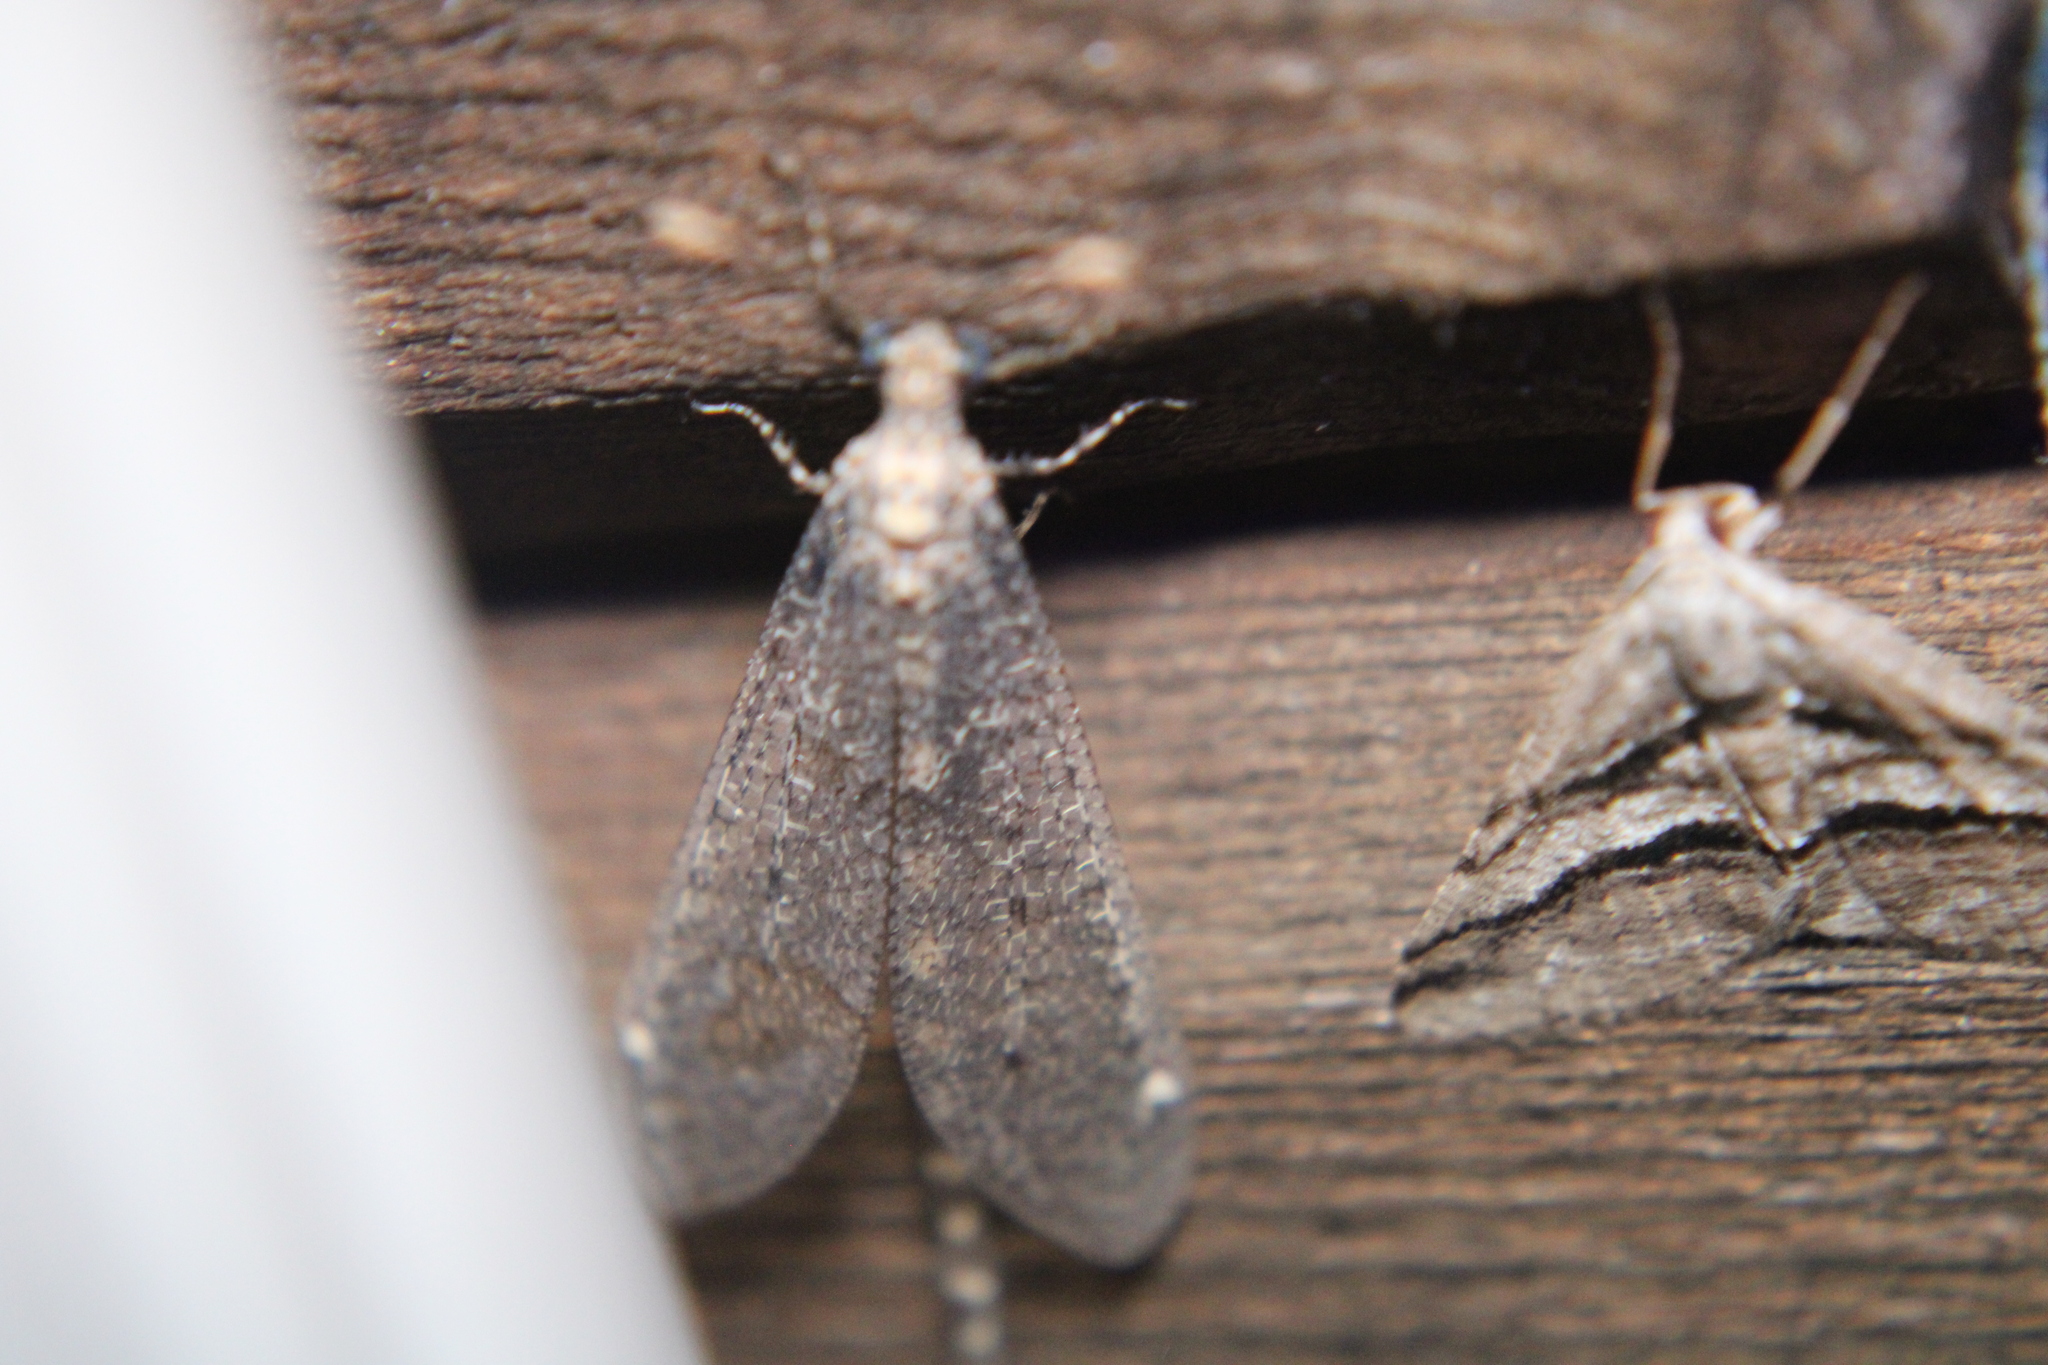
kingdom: Animalia
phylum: Arthropoda
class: Insecta
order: Neuroptera
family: Myrmeleontidae
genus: Brachynemurus
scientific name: Brachynemurus sackeni
